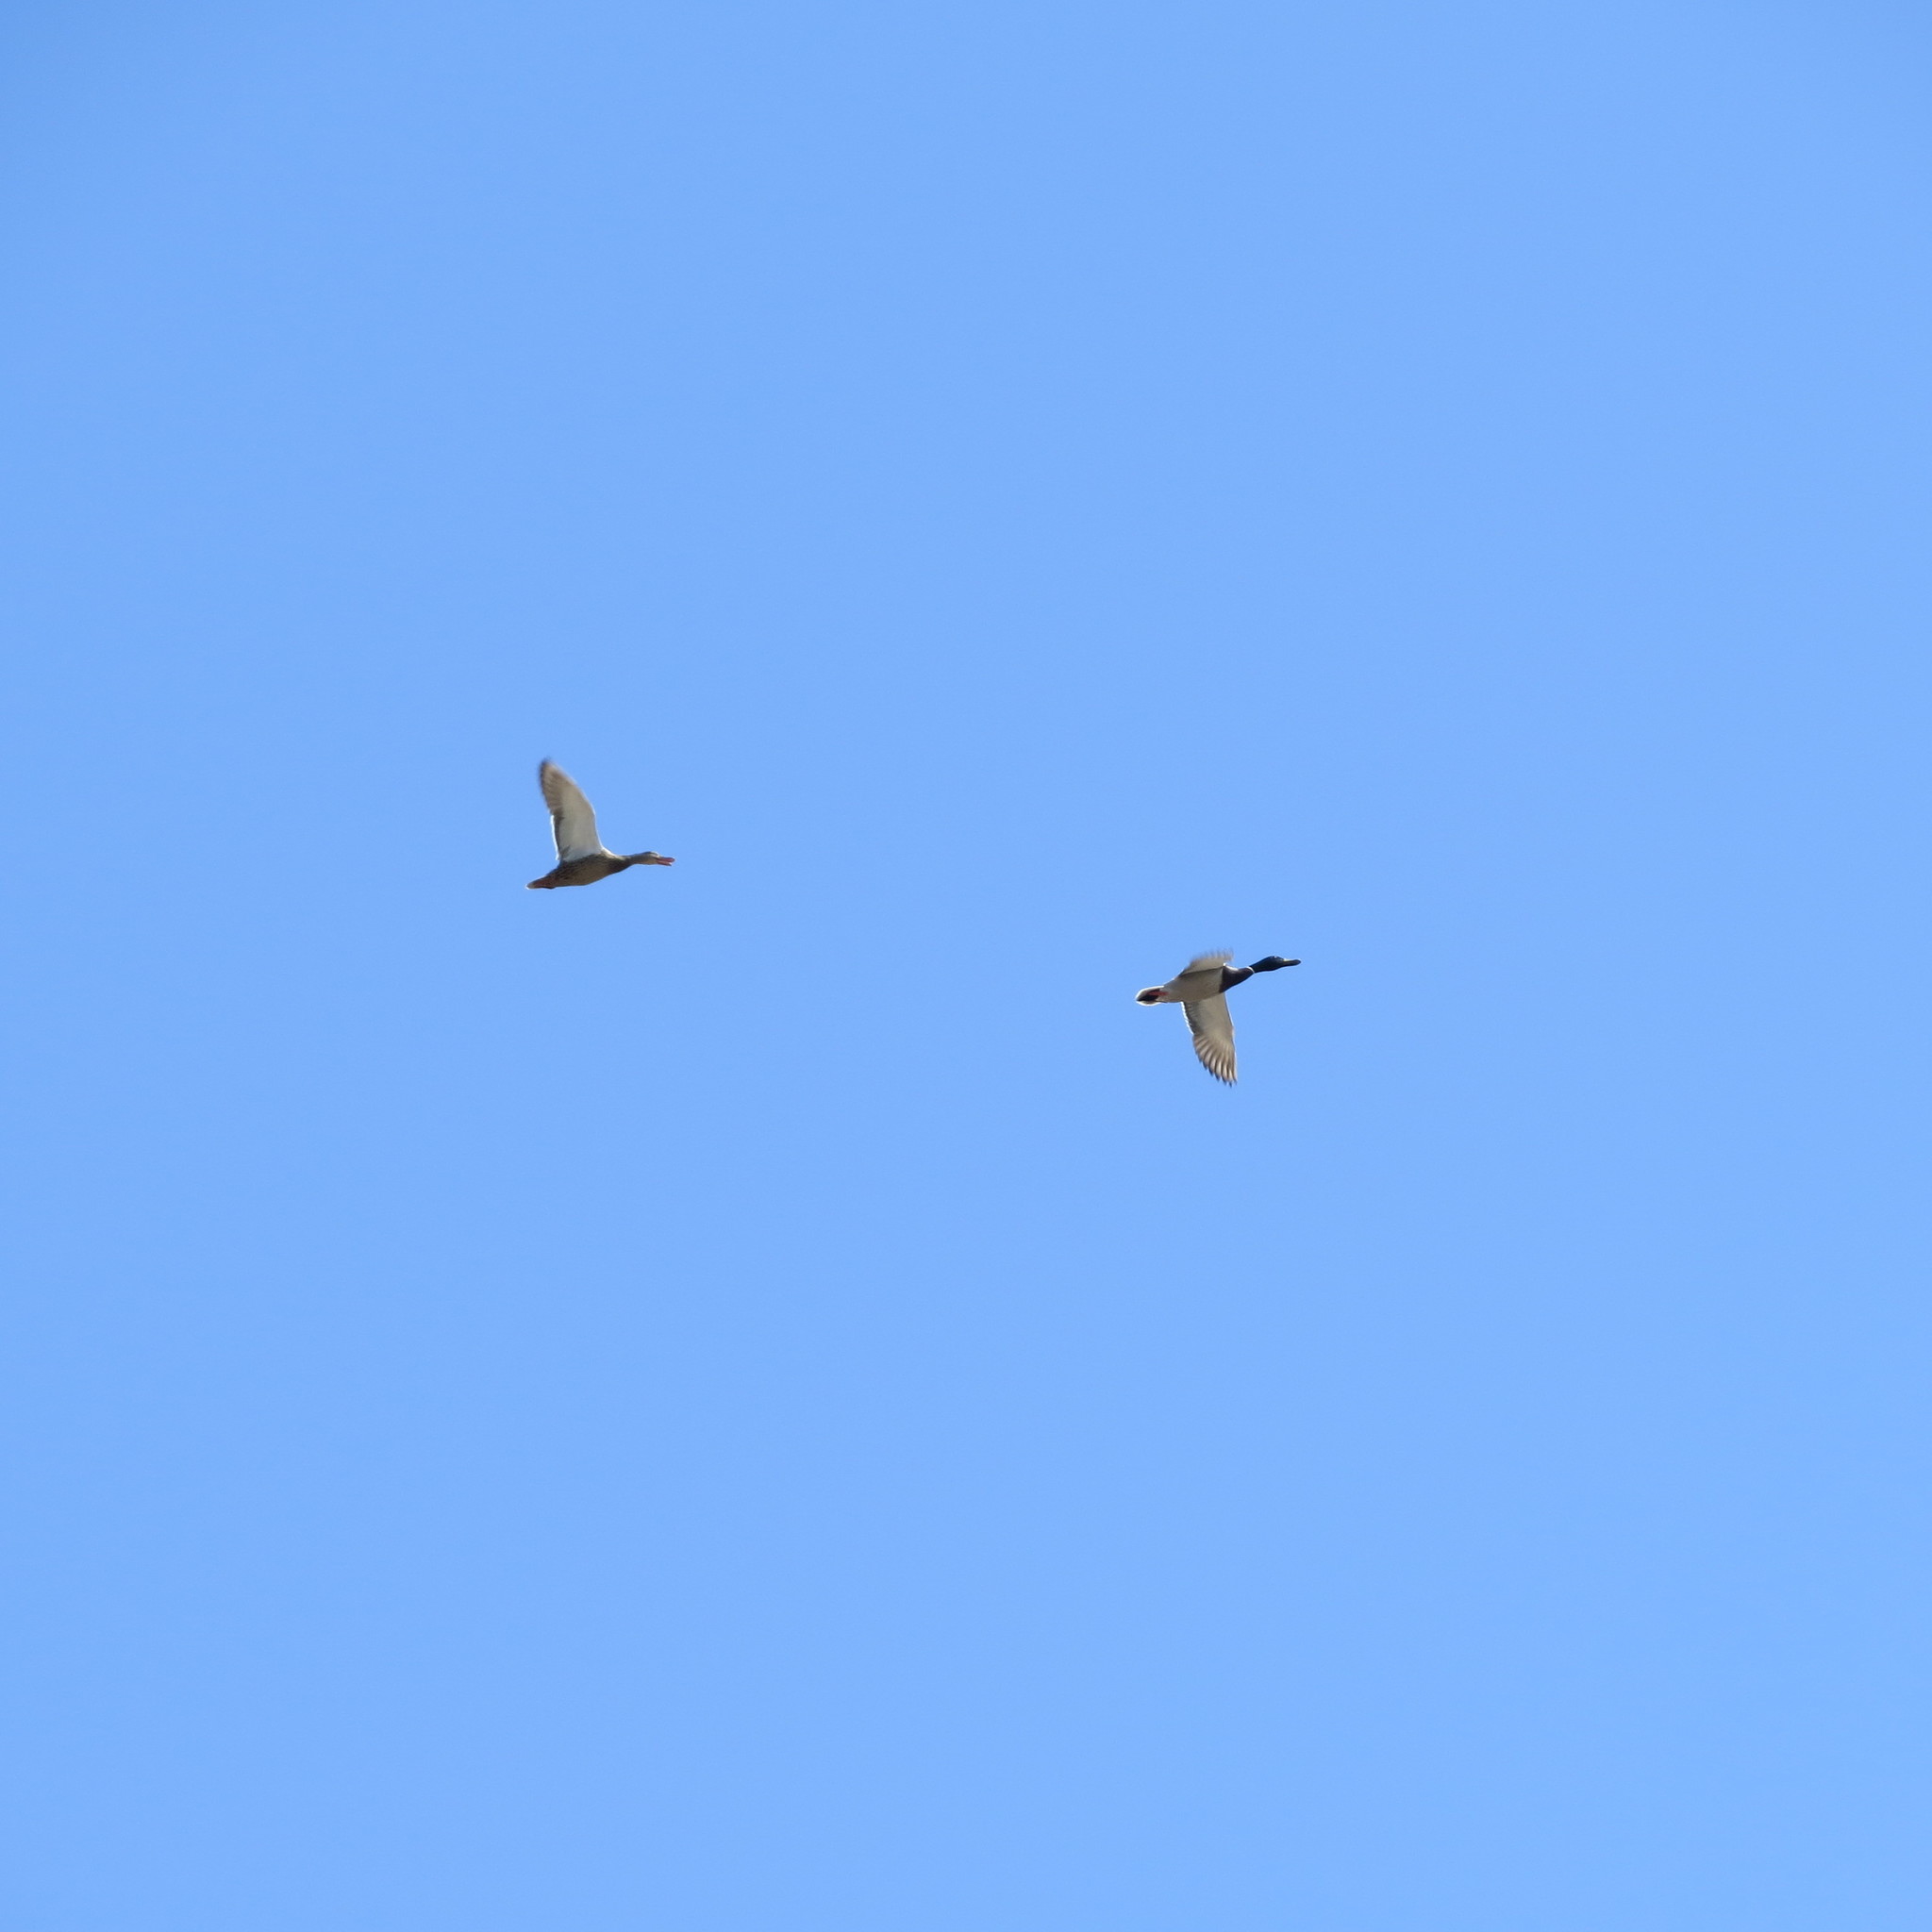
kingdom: Animalia
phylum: Chordata
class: Aves
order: Anseriformes
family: Anatidae
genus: Anas
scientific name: Anas platyrhynchos
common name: Mallard
